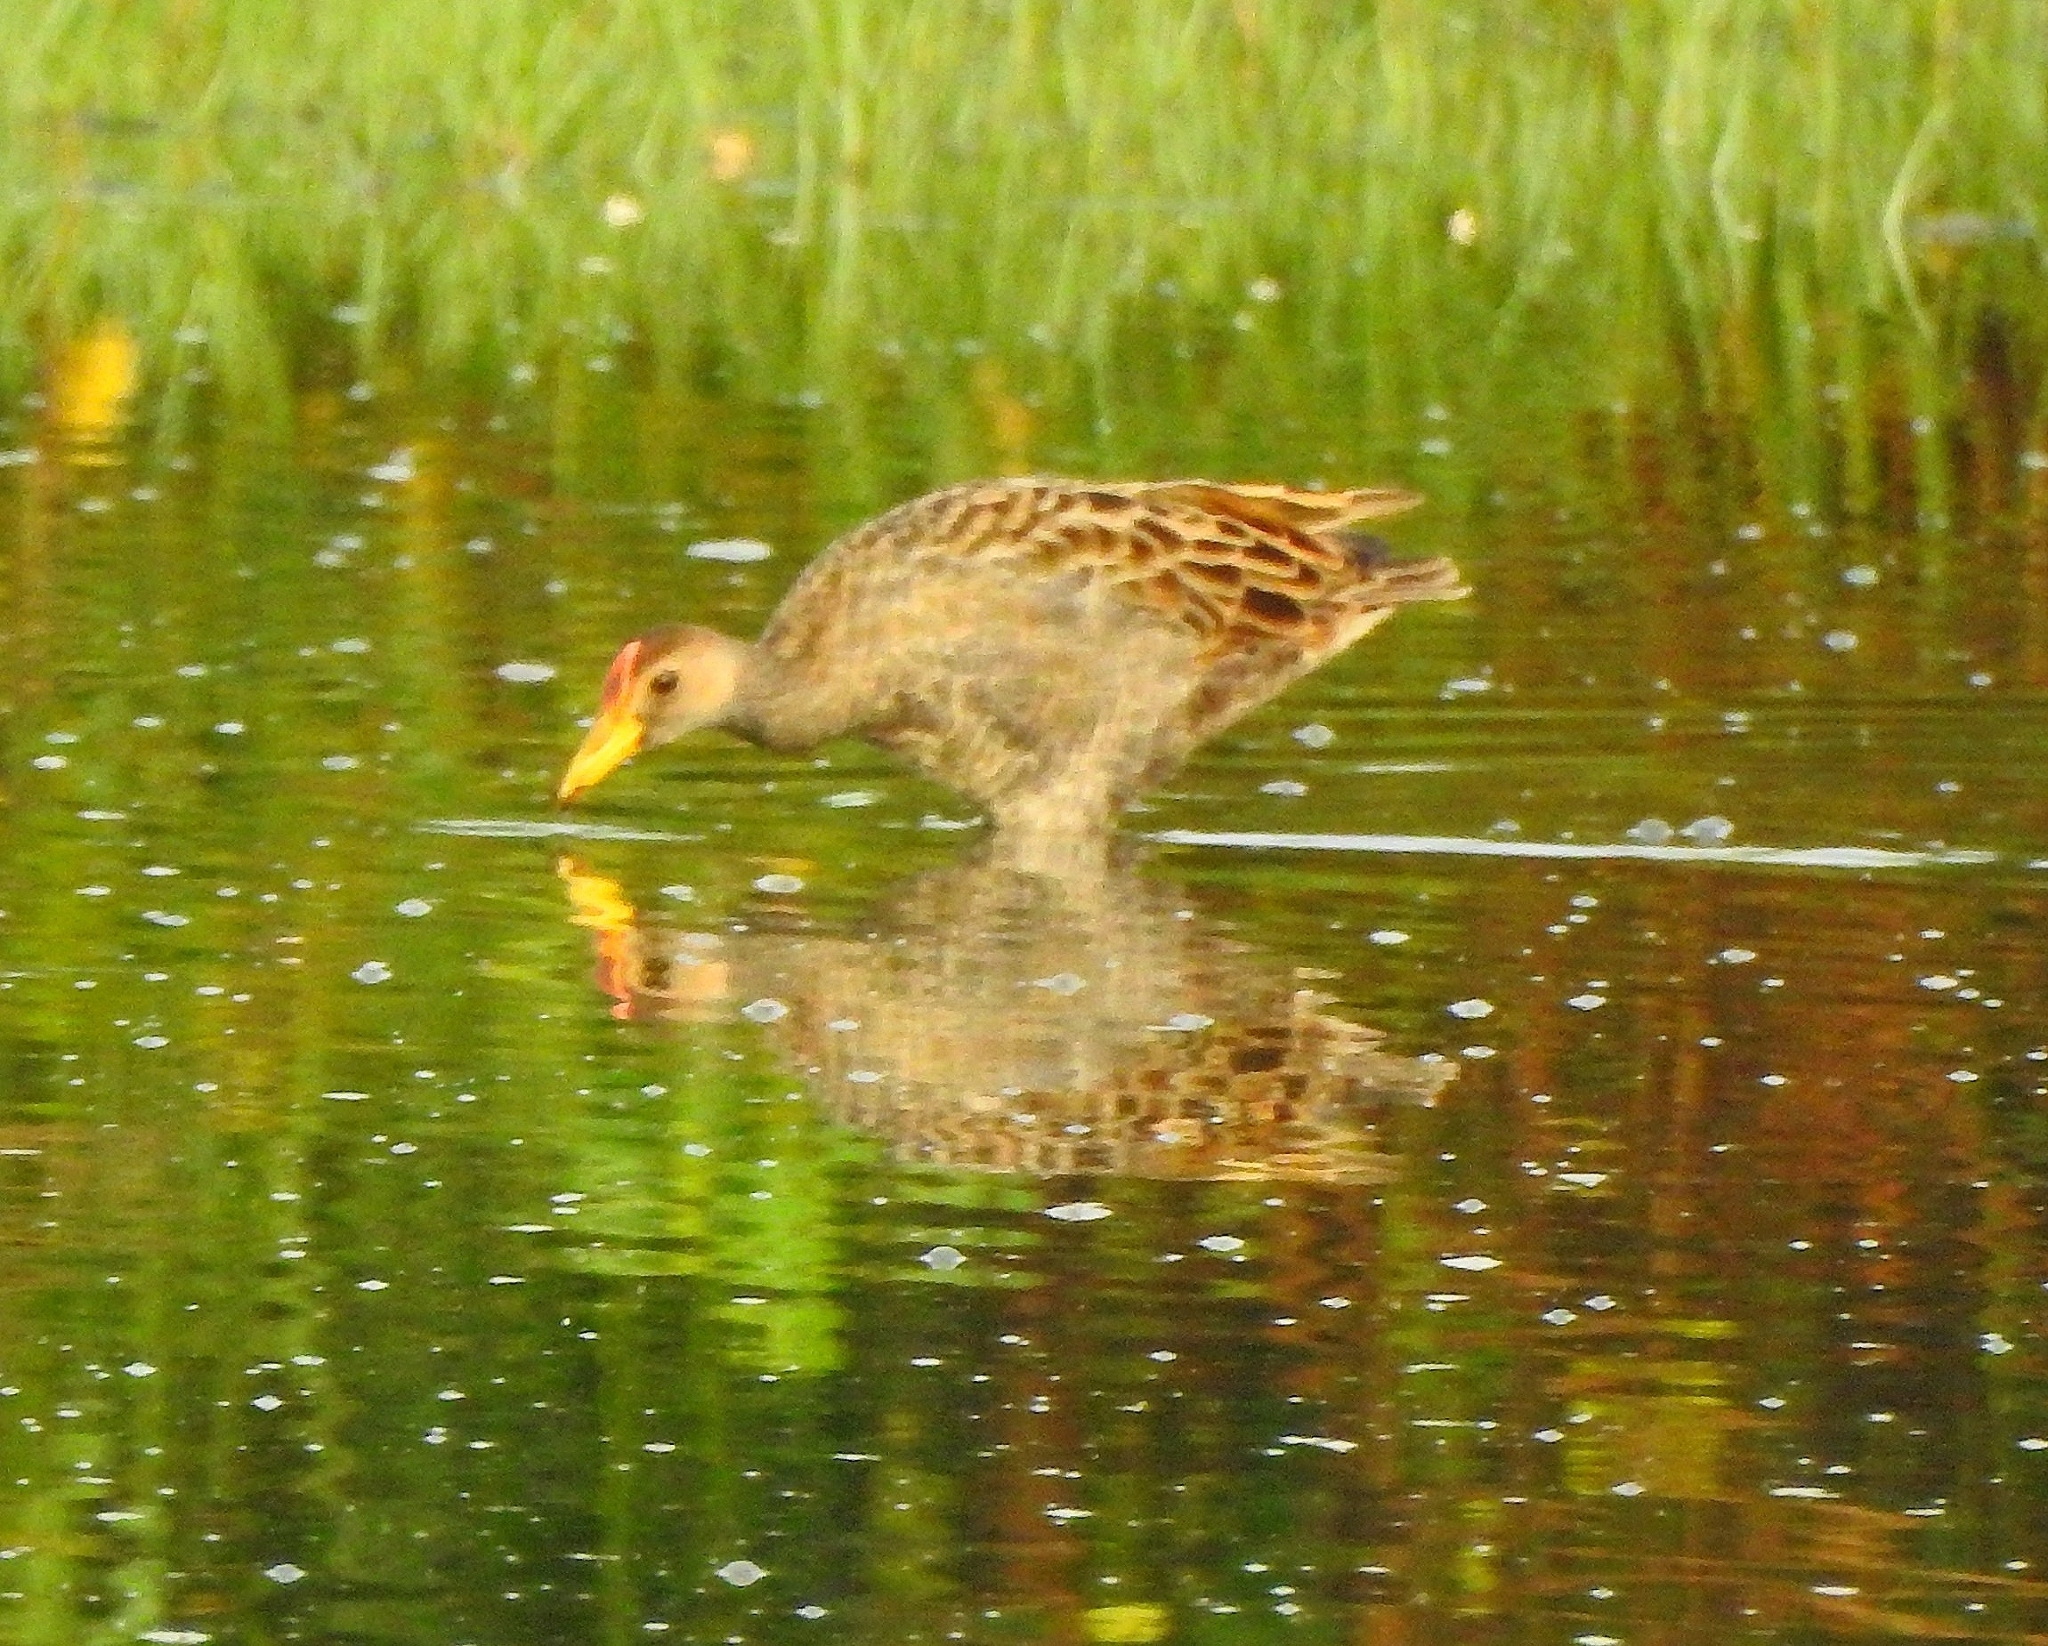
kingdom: Animalia
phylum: Chordata
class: Aves
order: Gruiformes
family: Rallidae
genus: Gallicrex
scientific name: Gallicrex cinerea
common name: Watercock
